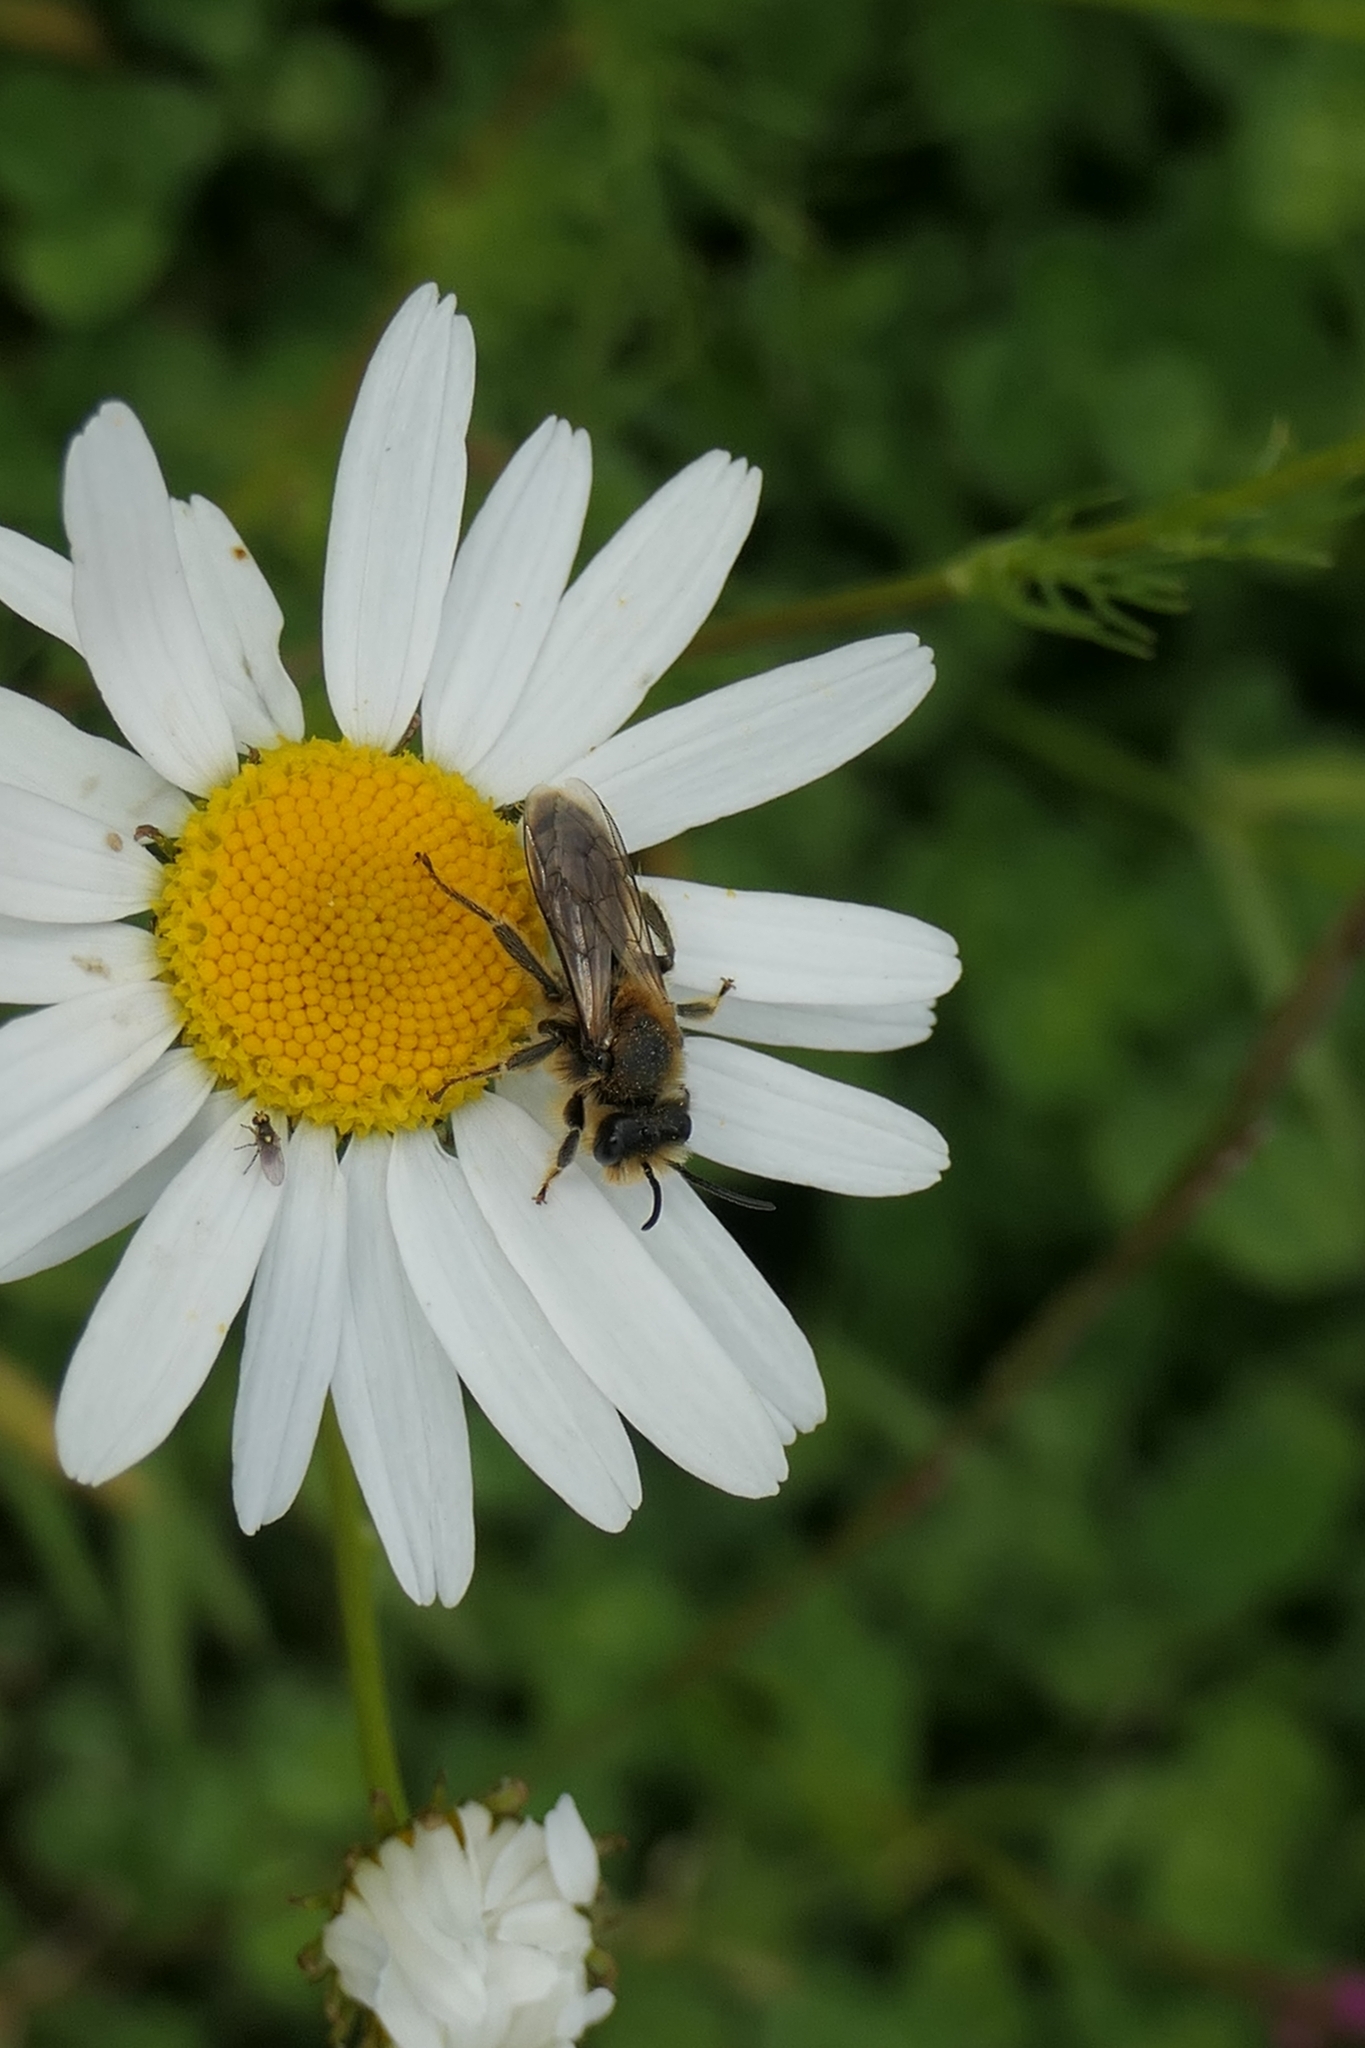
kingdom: Animalia
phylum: Arthropoda
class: Insecta
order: Hymenoptera
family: Colletidae
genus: Leioproctus
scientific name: Leioproctus fulvescens
